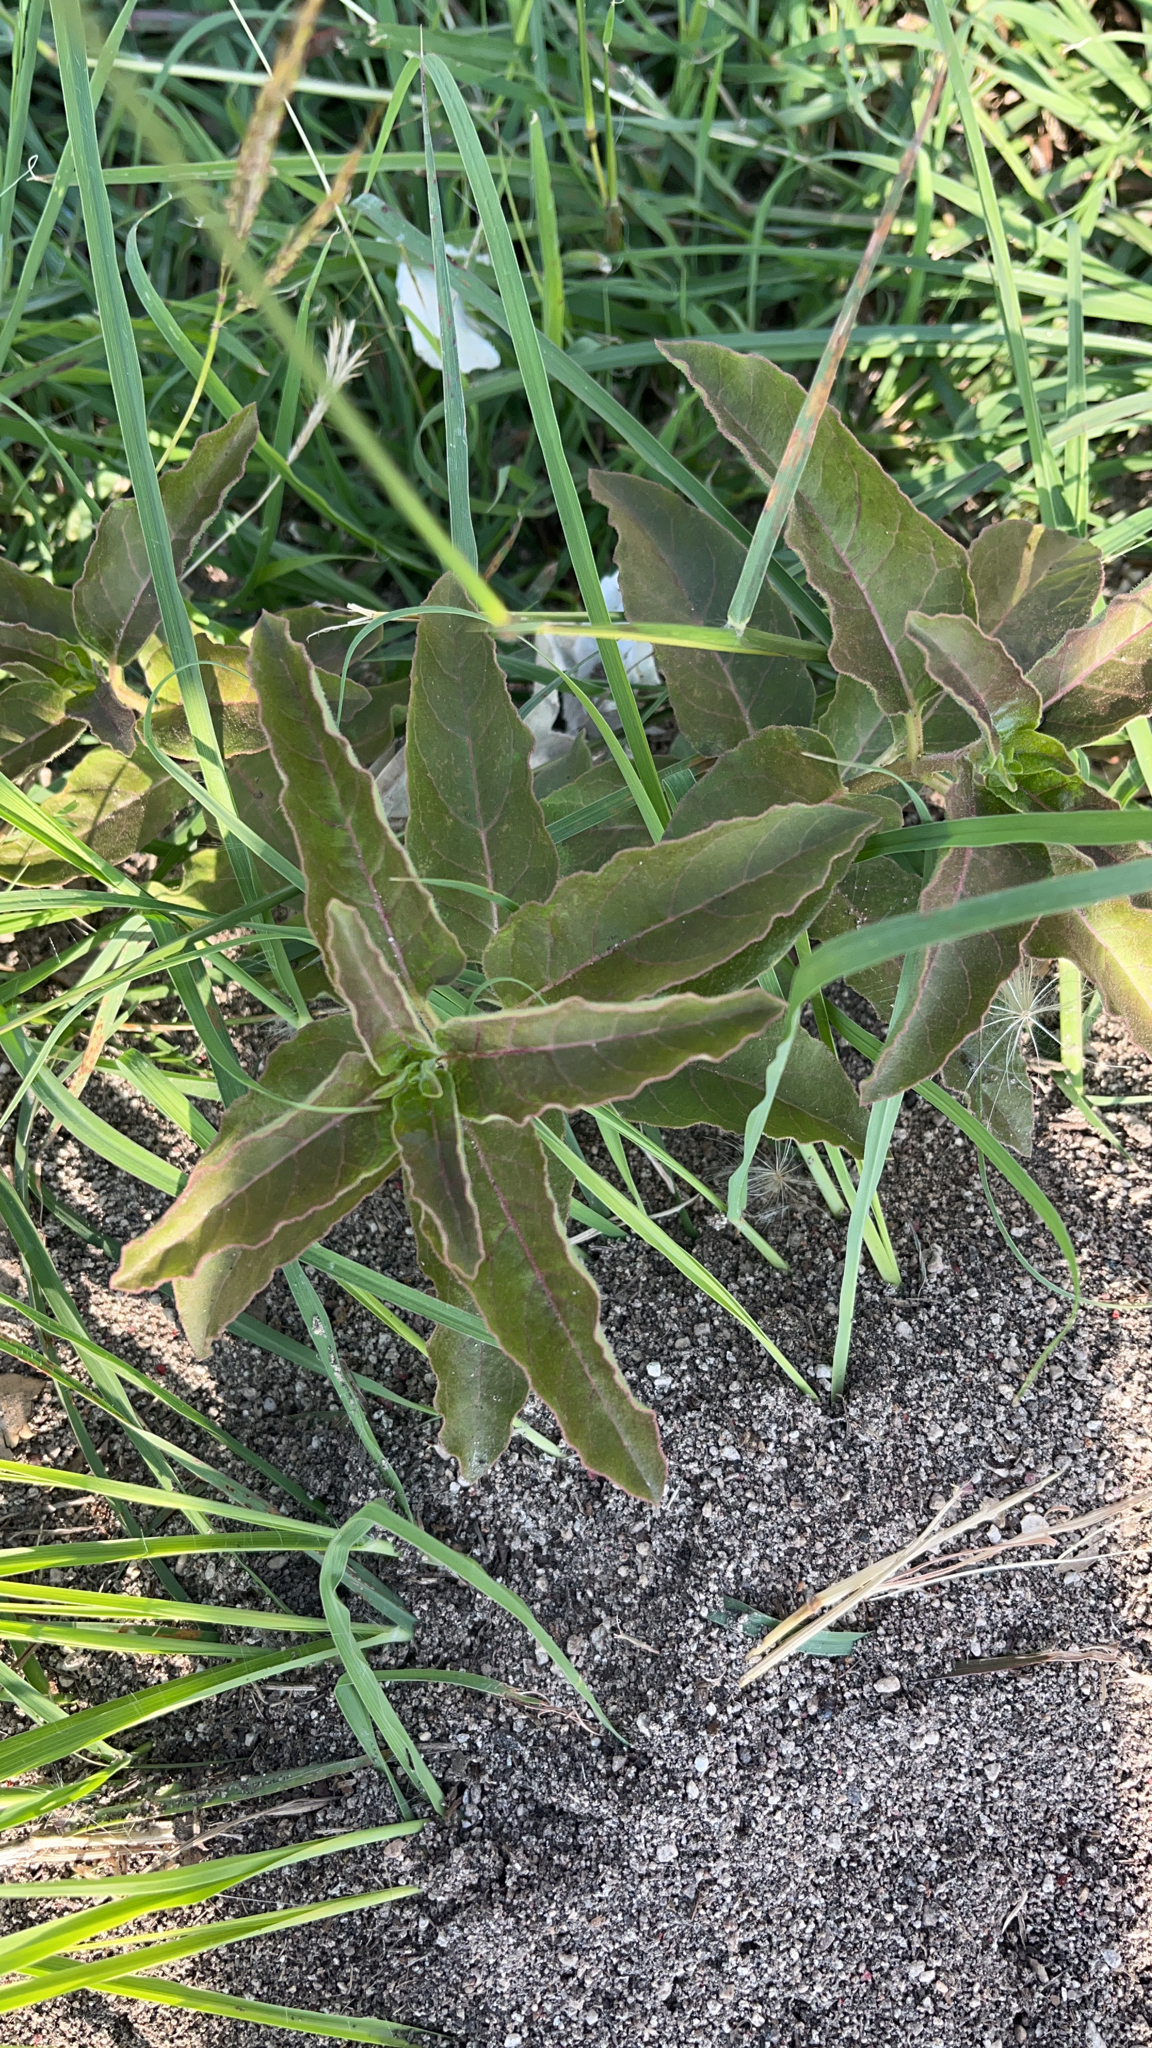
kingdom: Plantae
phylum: Tracheophyta
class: Magnoliopsida
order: Gentianales
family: Apocynaceae
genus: Asclepias
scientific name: Asclepias oenotheroides
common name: Zizotes milkweed
